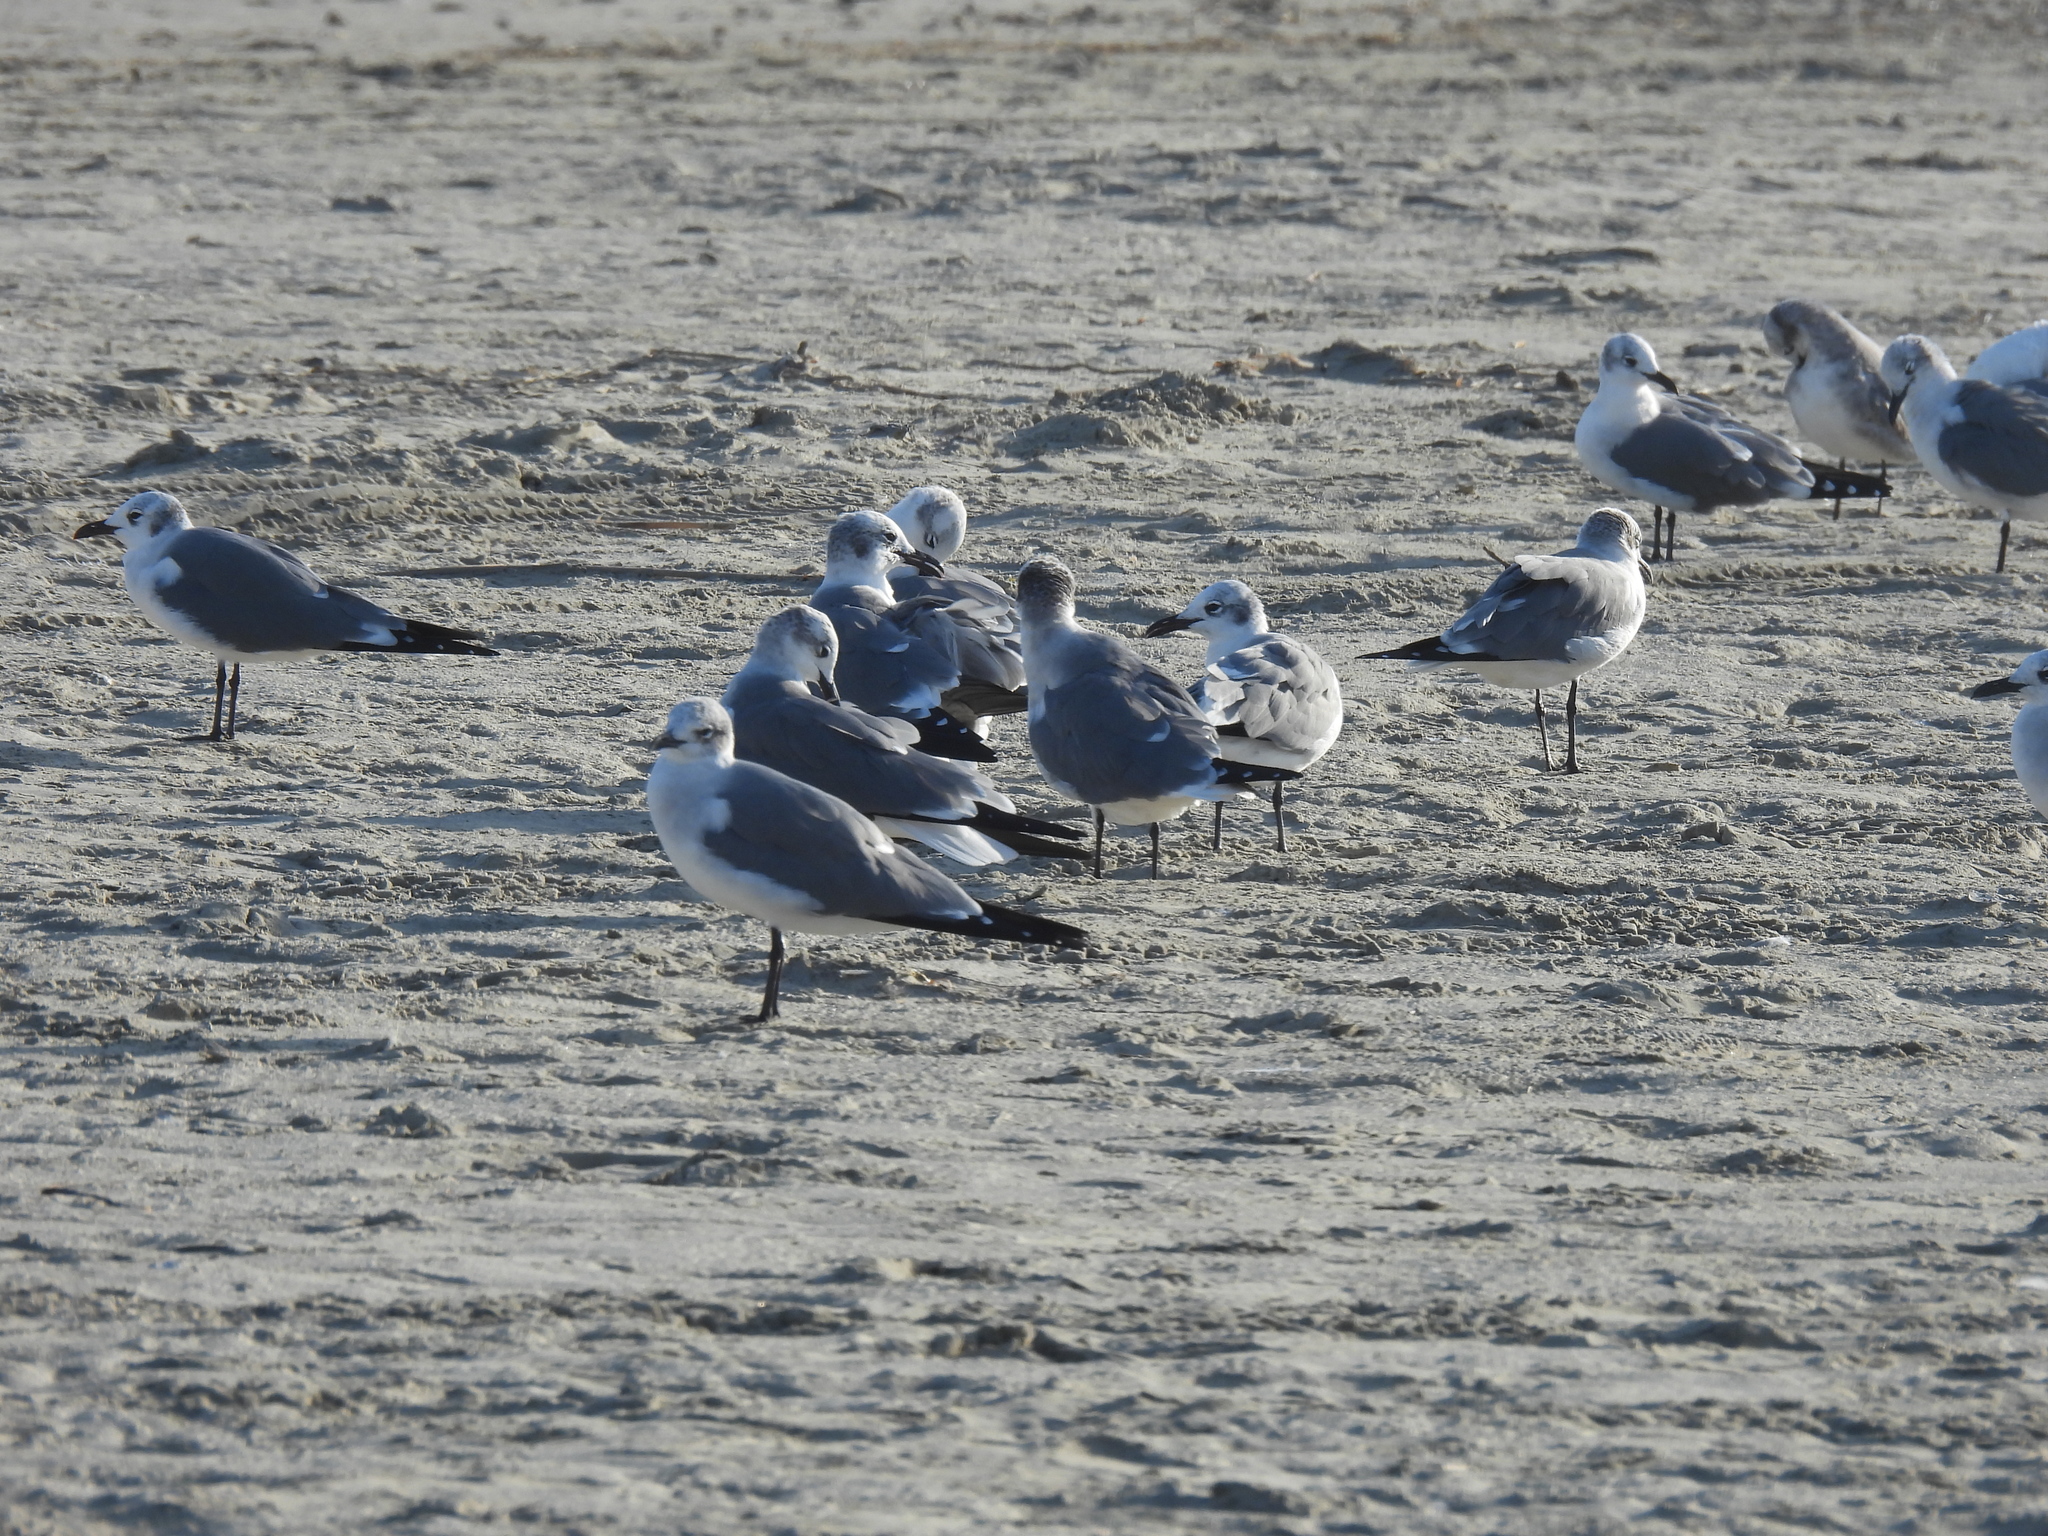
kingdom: Animalia
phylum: Chordata
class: Aves
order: Charadriiformes
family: Laridae
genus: Leucophaeus
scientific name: Leucophaeus atricilla
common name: Laughing gull
